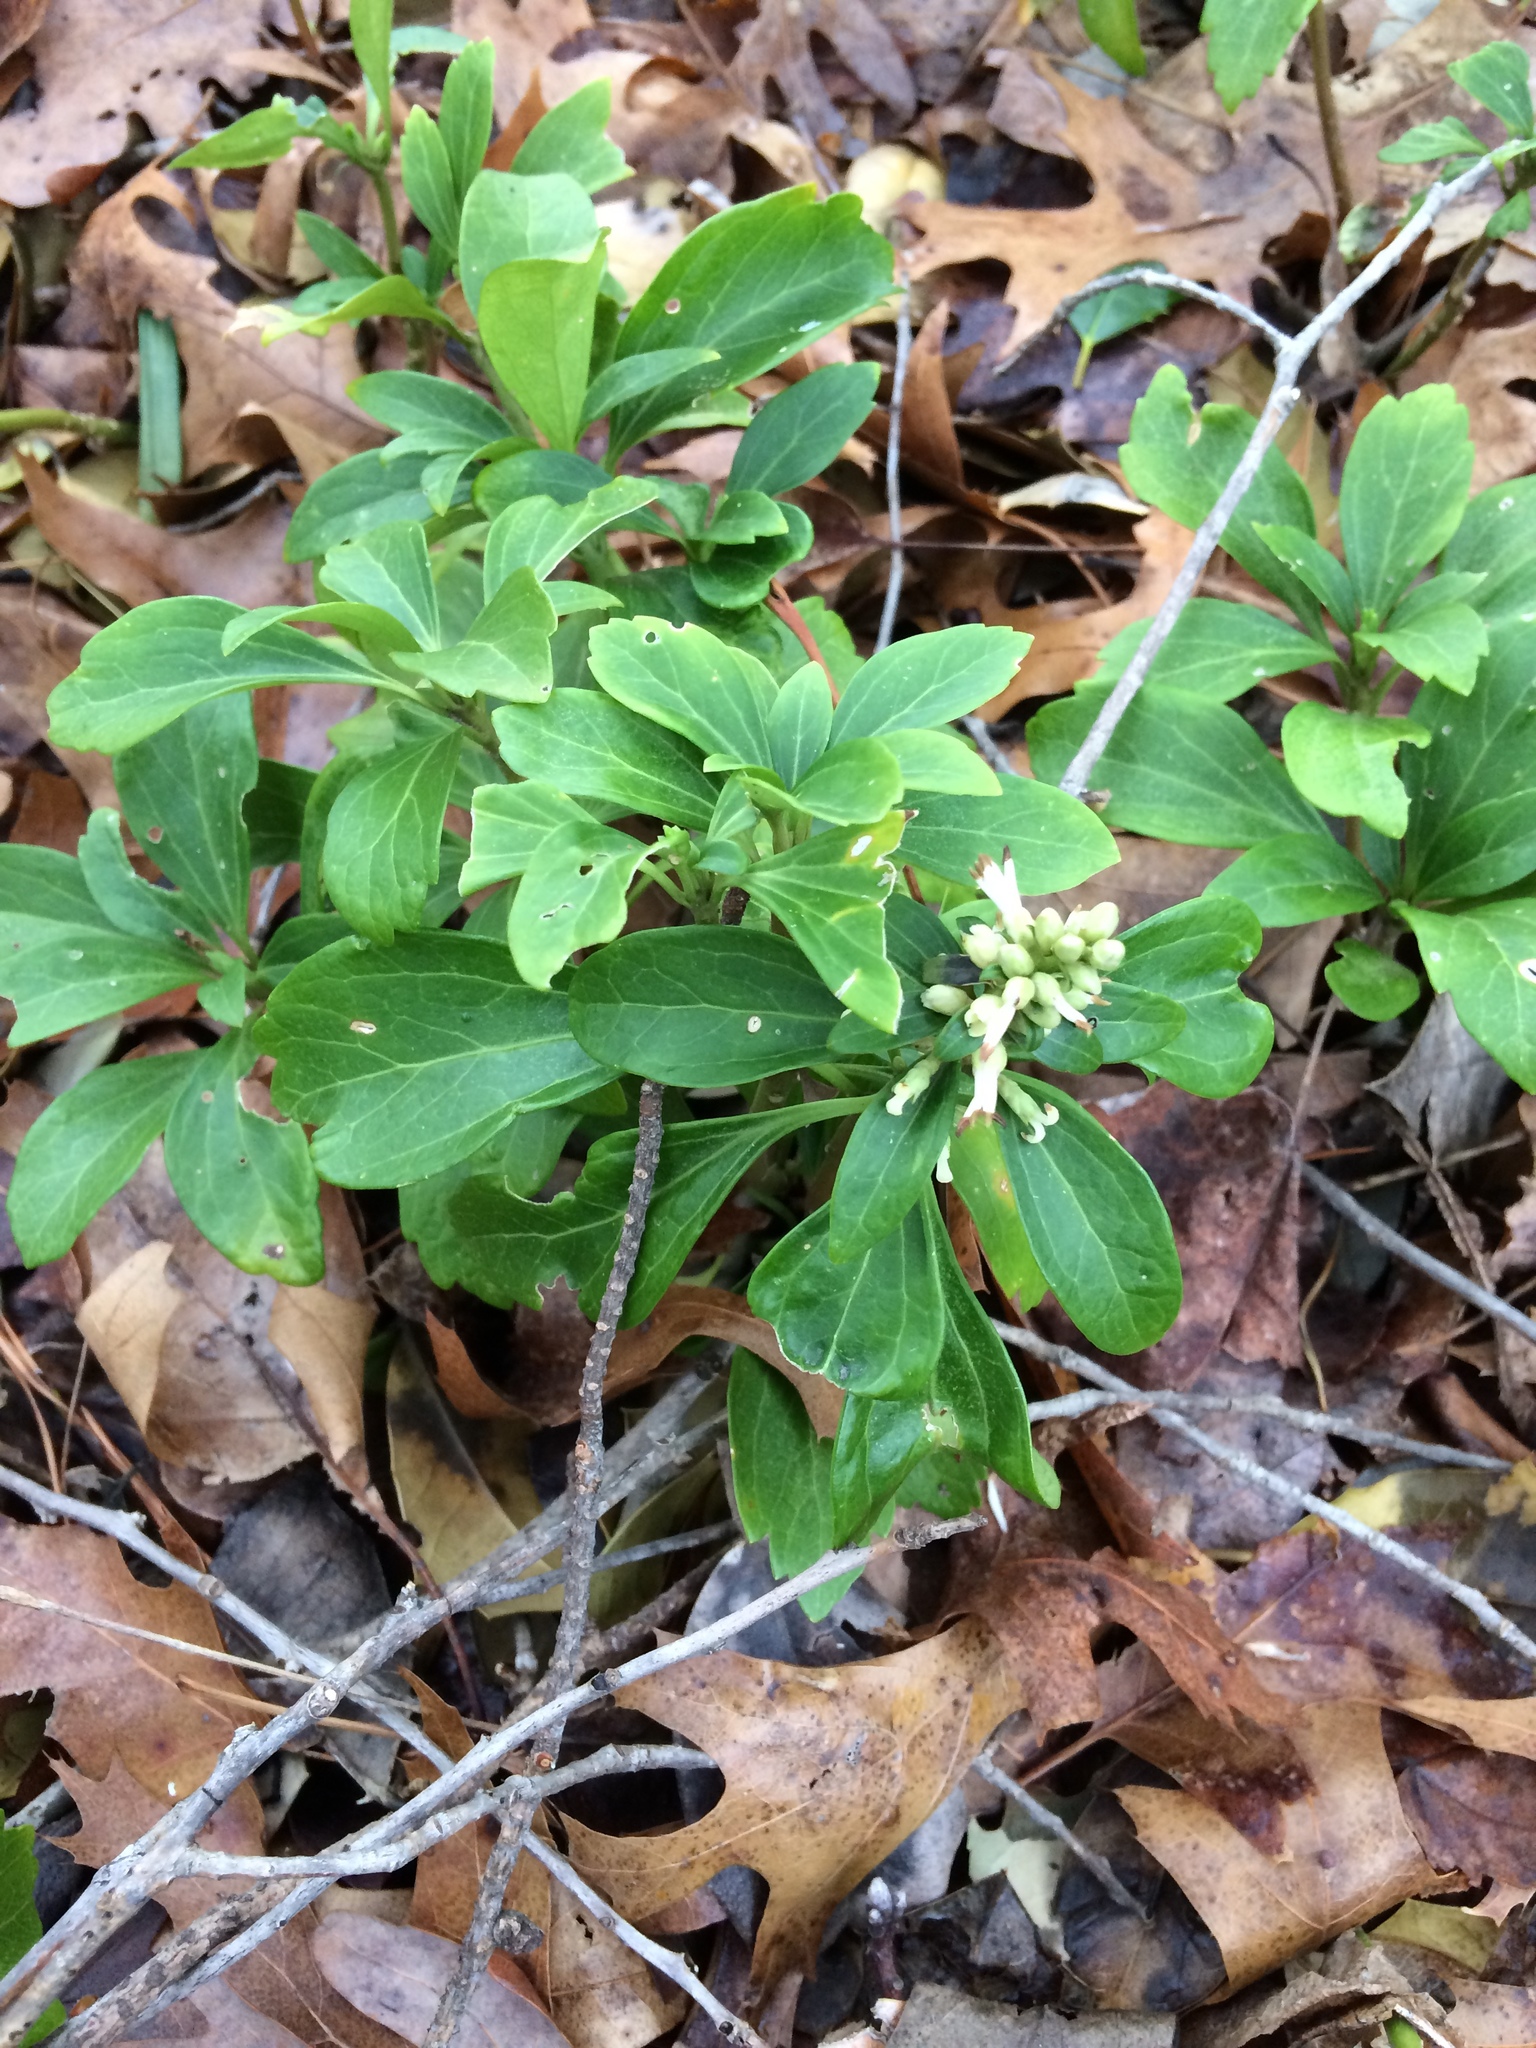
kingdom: Plantae
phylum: Tracheophyta
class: Magnoliopsida
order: Buxales
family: Buxaceae
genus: Pachysandra
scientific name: Pachysandra terminalis
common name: Japanese pachysandra
